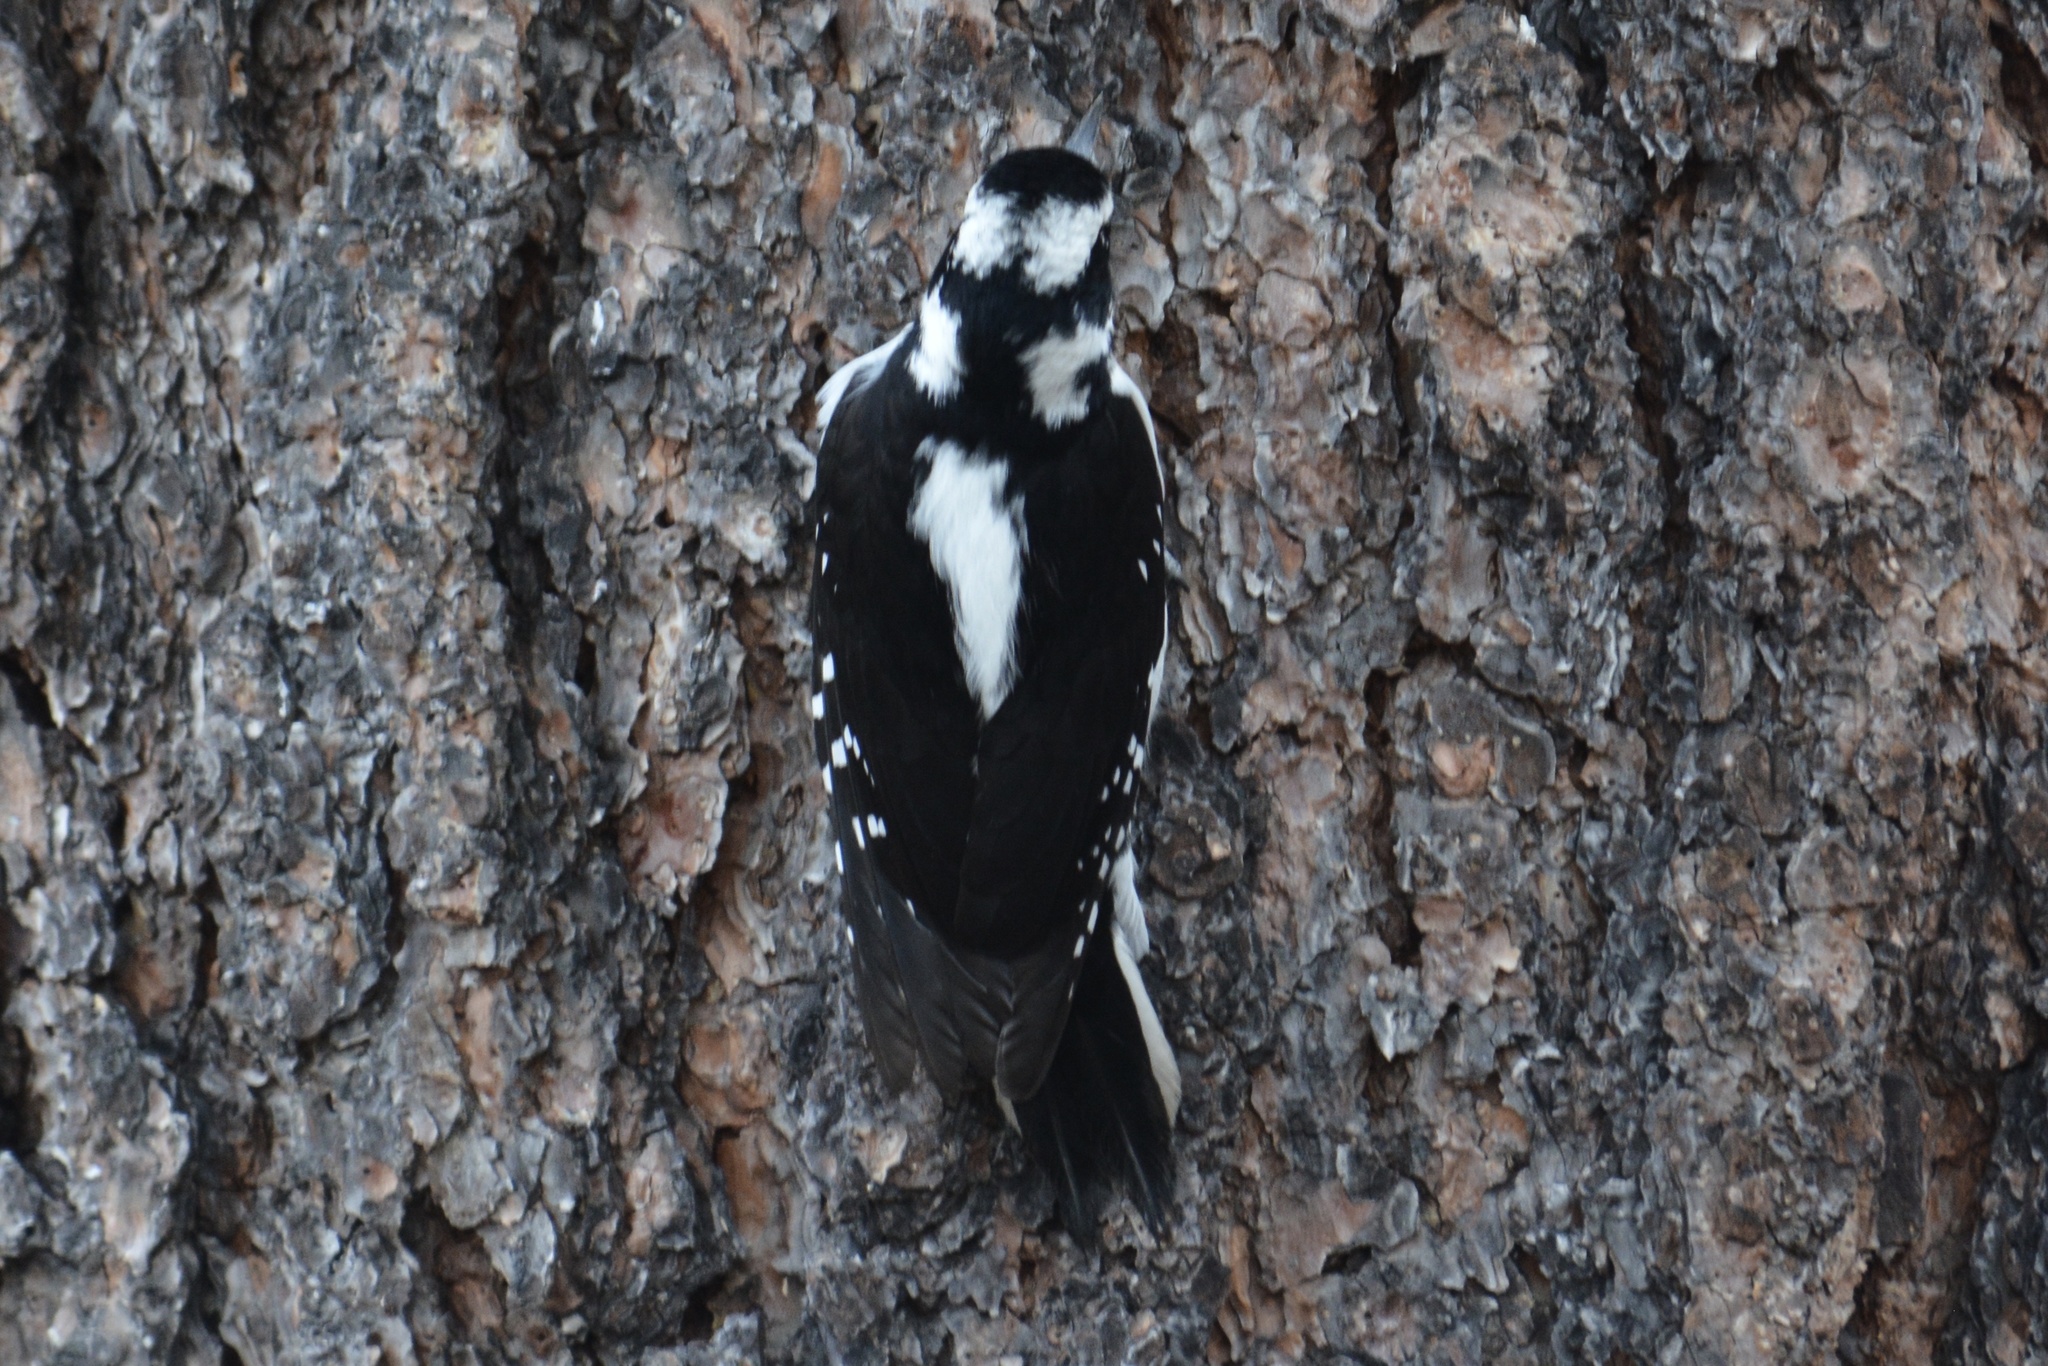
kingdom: Animalia
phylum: Chordata
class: Aves
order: Piciformes
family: Picidae
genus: Leuconotopicus
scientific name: Leuconotopicus villosus
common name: Hairy woodpecker
